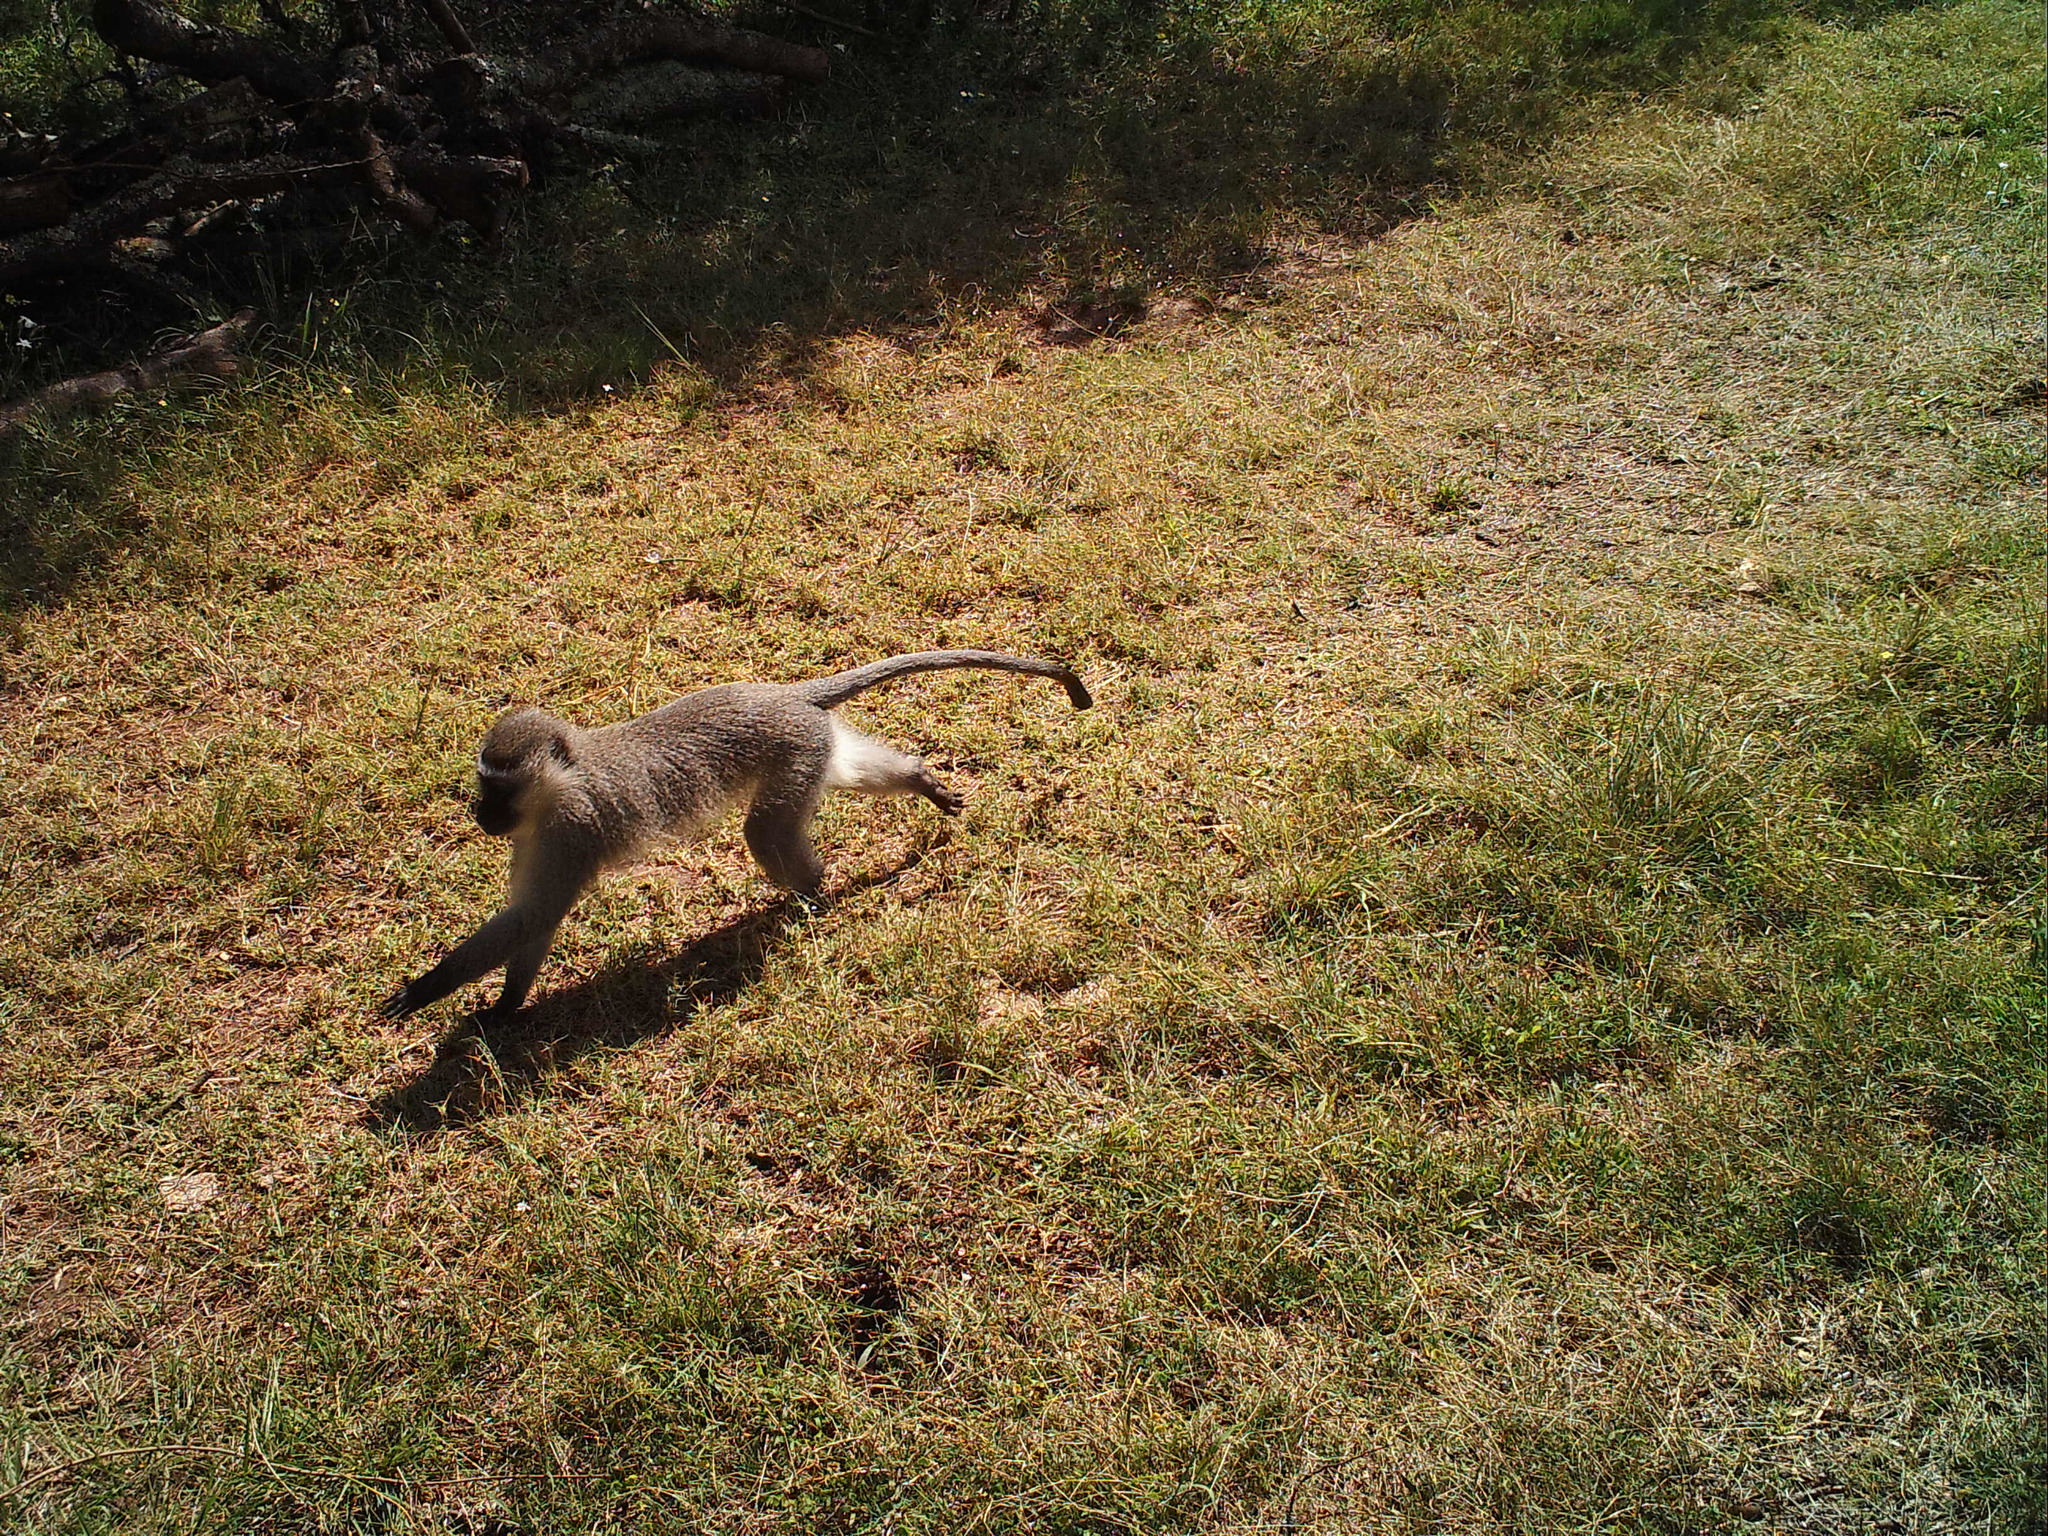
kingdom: Animalia
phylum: Chordata
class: Mammalia
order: Primates
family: Cercopithecidae
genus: Chlorocebus
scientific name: Chlorocebus pygerythrus
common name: Vervet monkey
